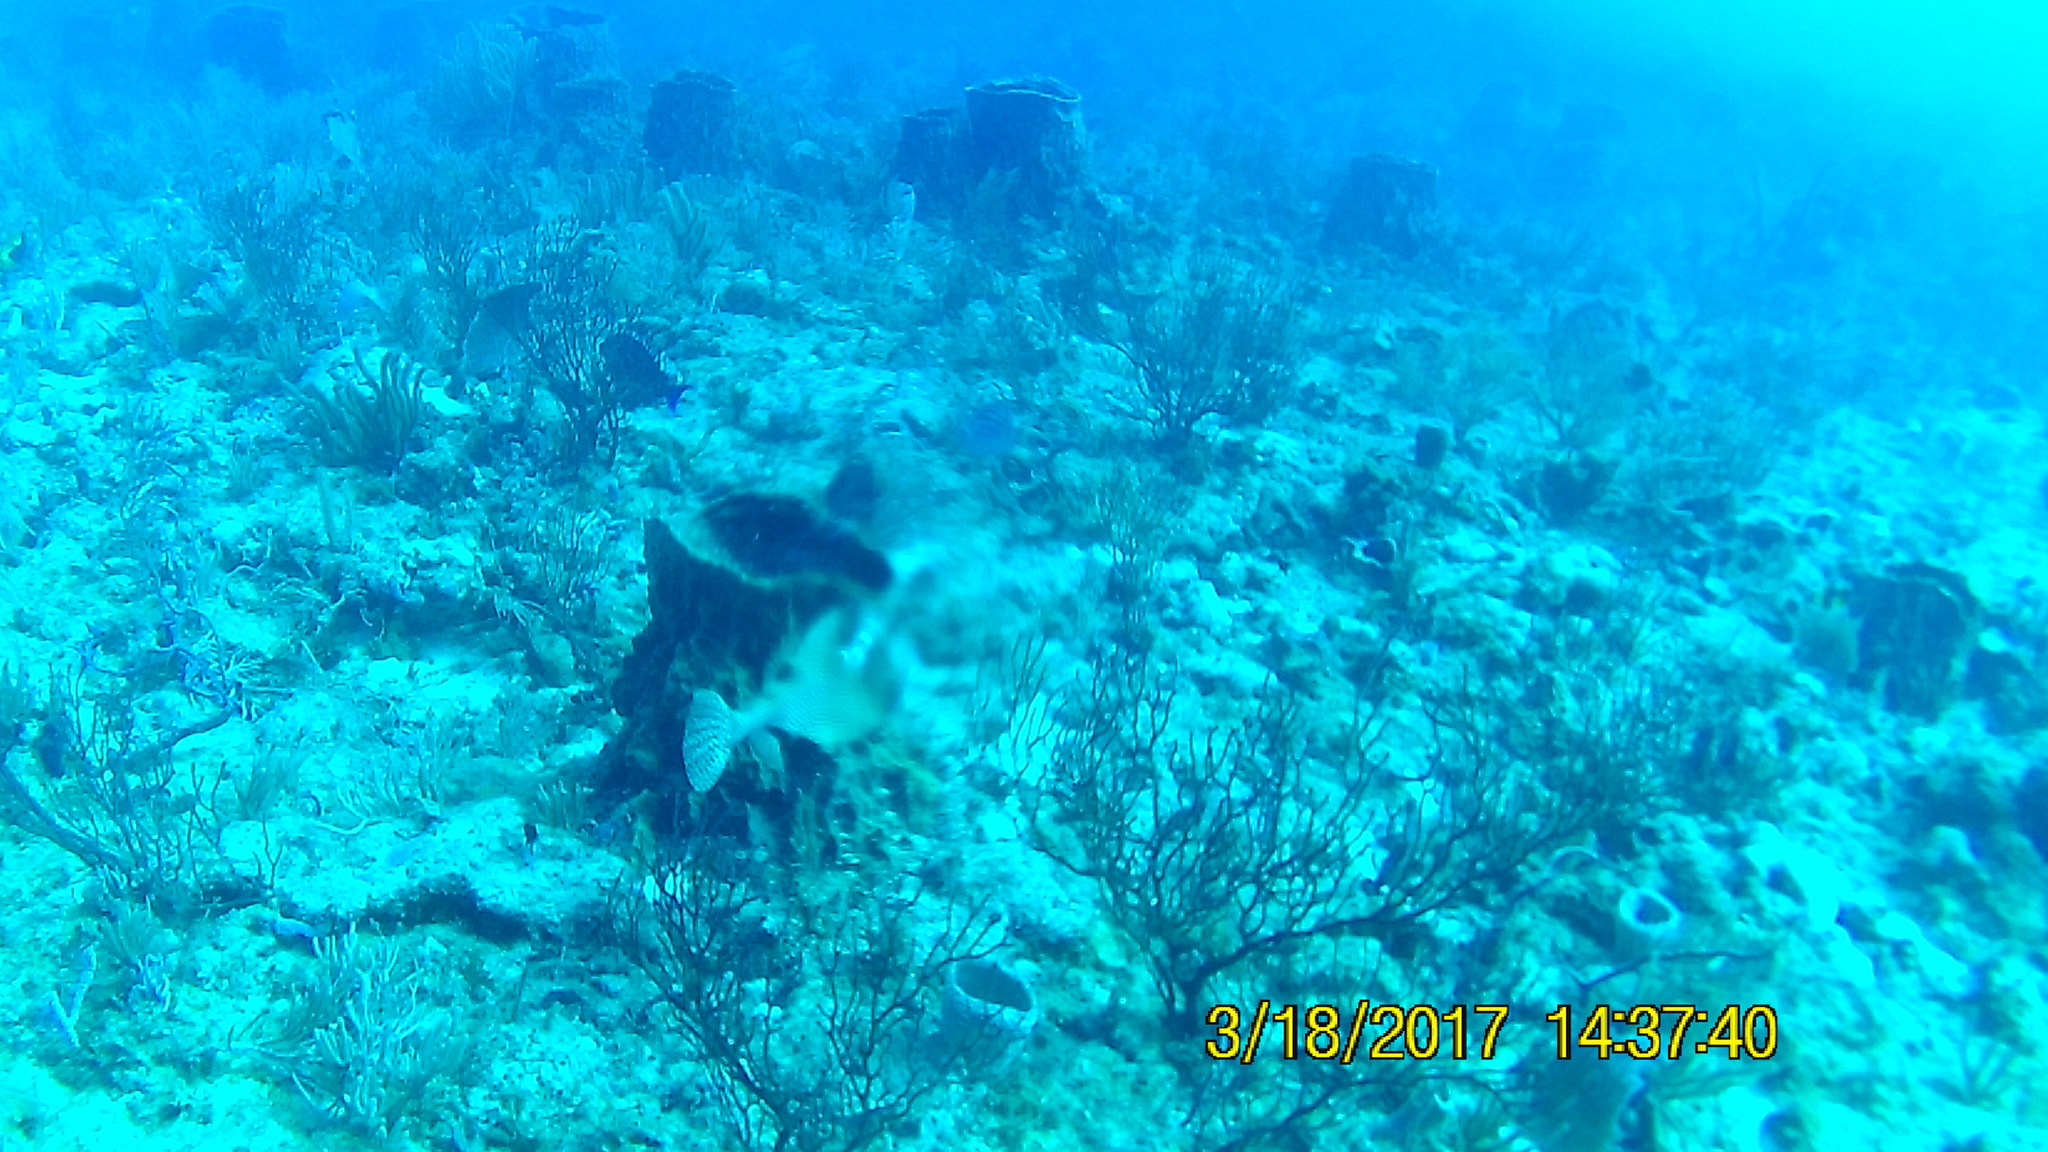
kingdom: Animalia
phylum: Chordata
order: Tetraodontiformes
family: Ostraciidae
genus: Lactophrys
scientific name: Lactophrys bicaudalis
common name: Spotted trunkfish
